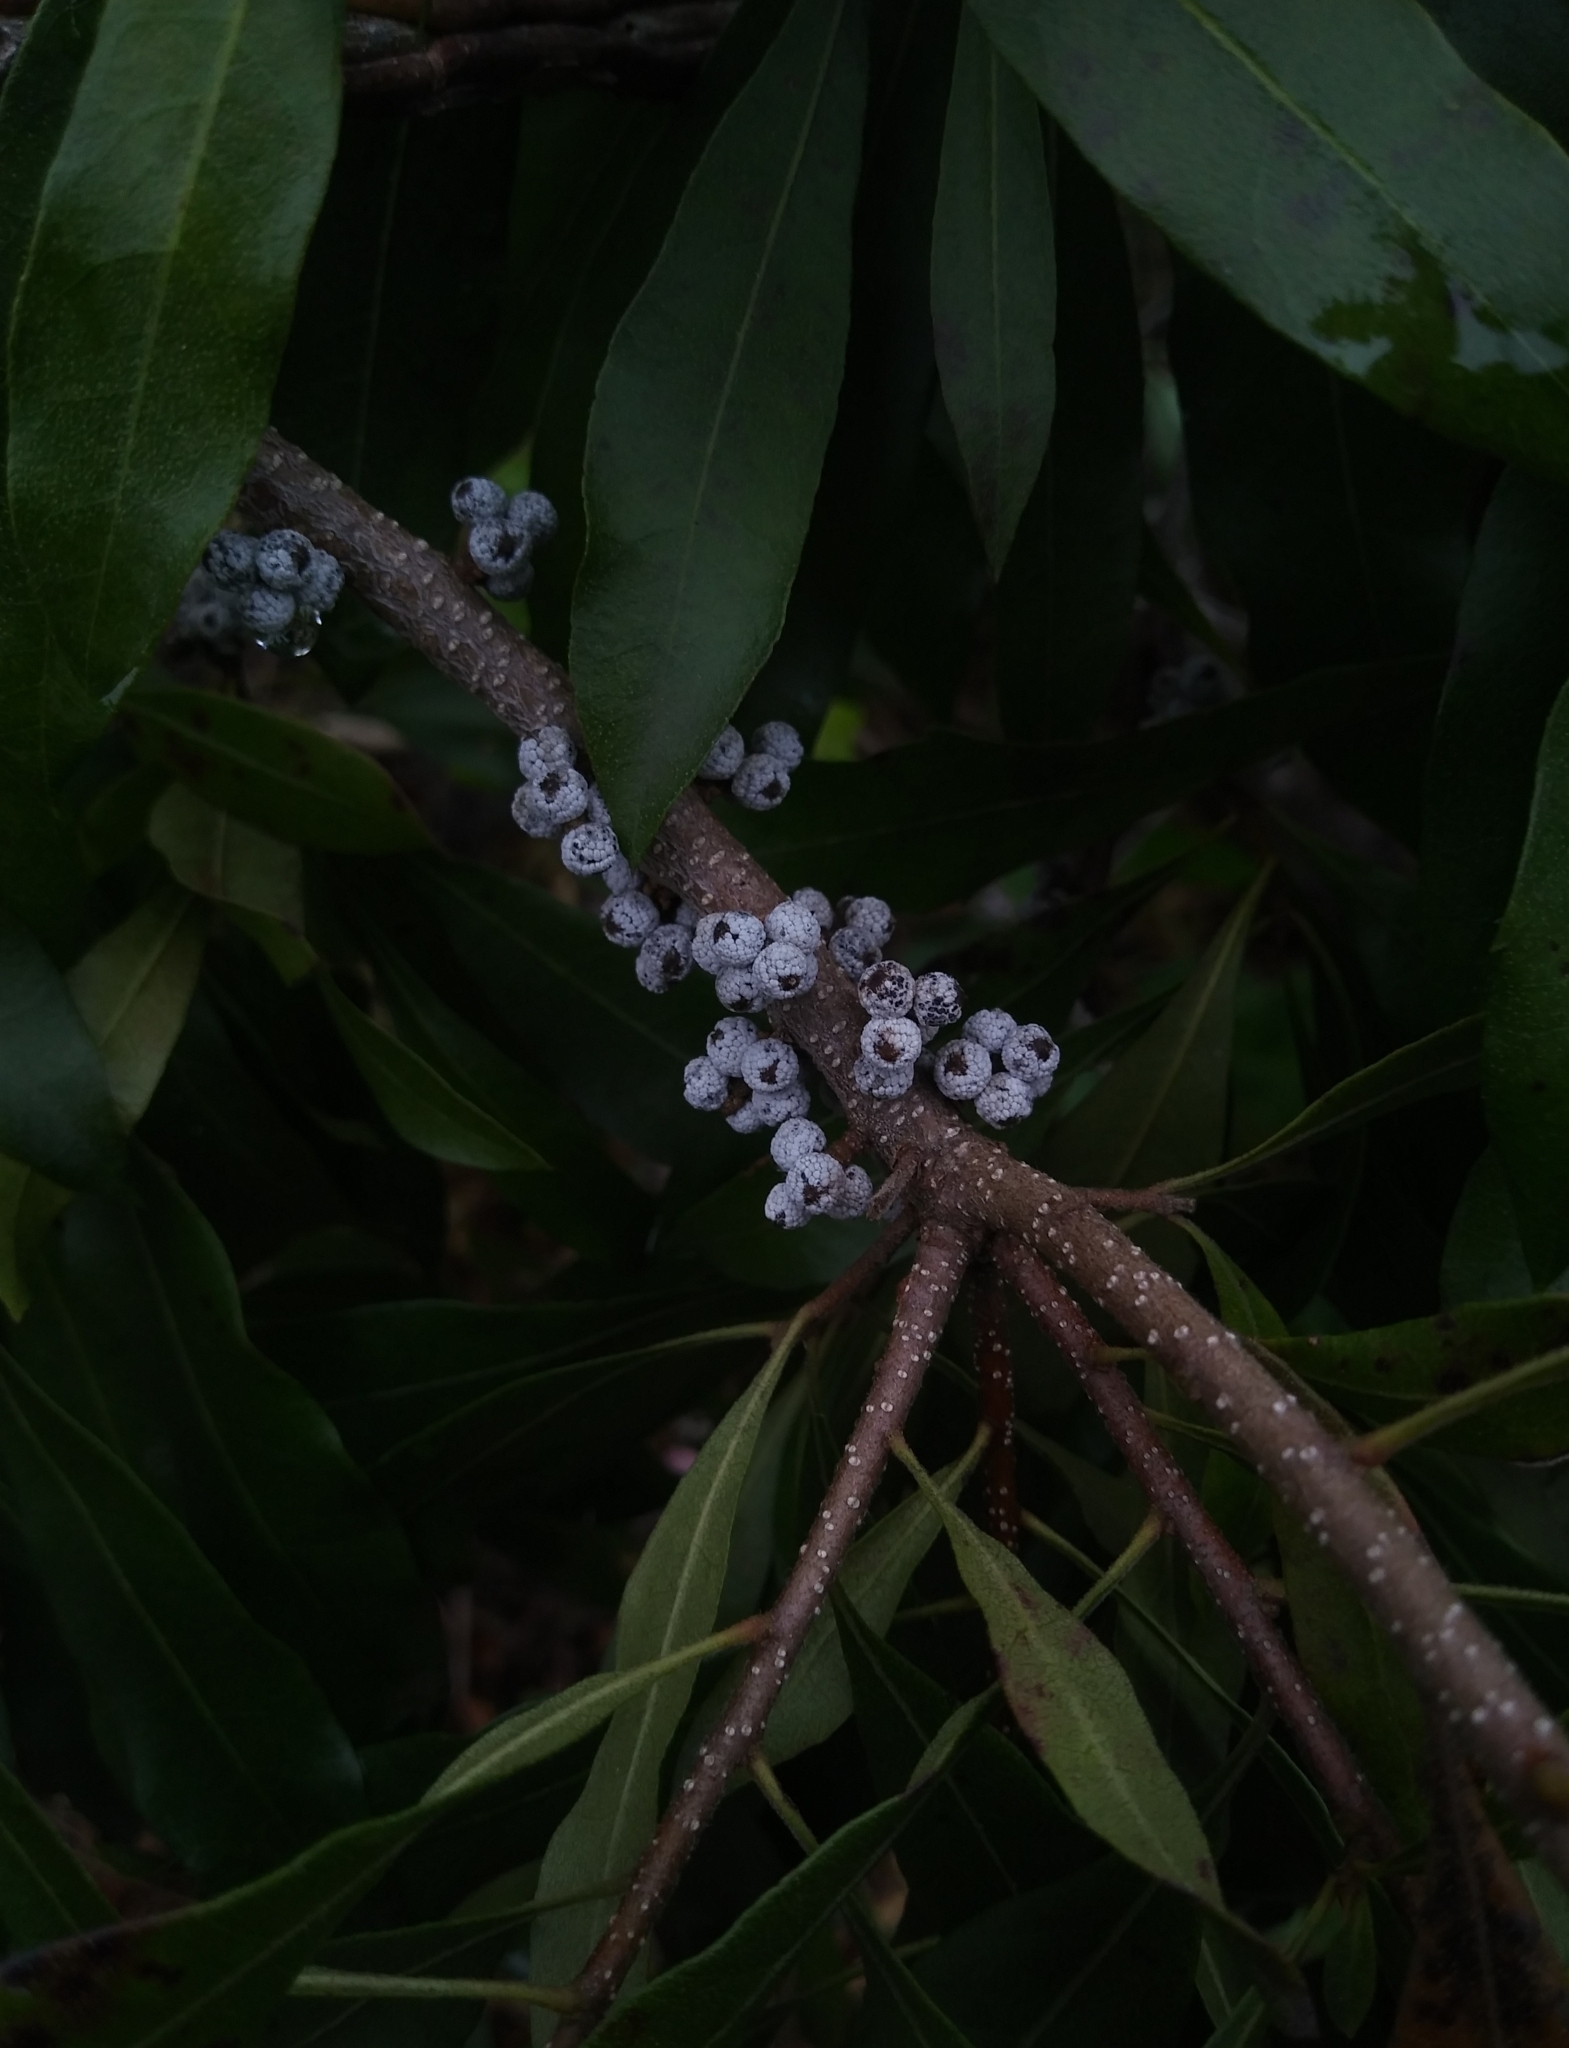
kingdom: Plantae
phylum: Tracheophyta
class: Magnoliopsida
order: Fagales
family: Myricaceae
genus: Morella
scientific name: Morella cerifera
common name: Wax myrtle
